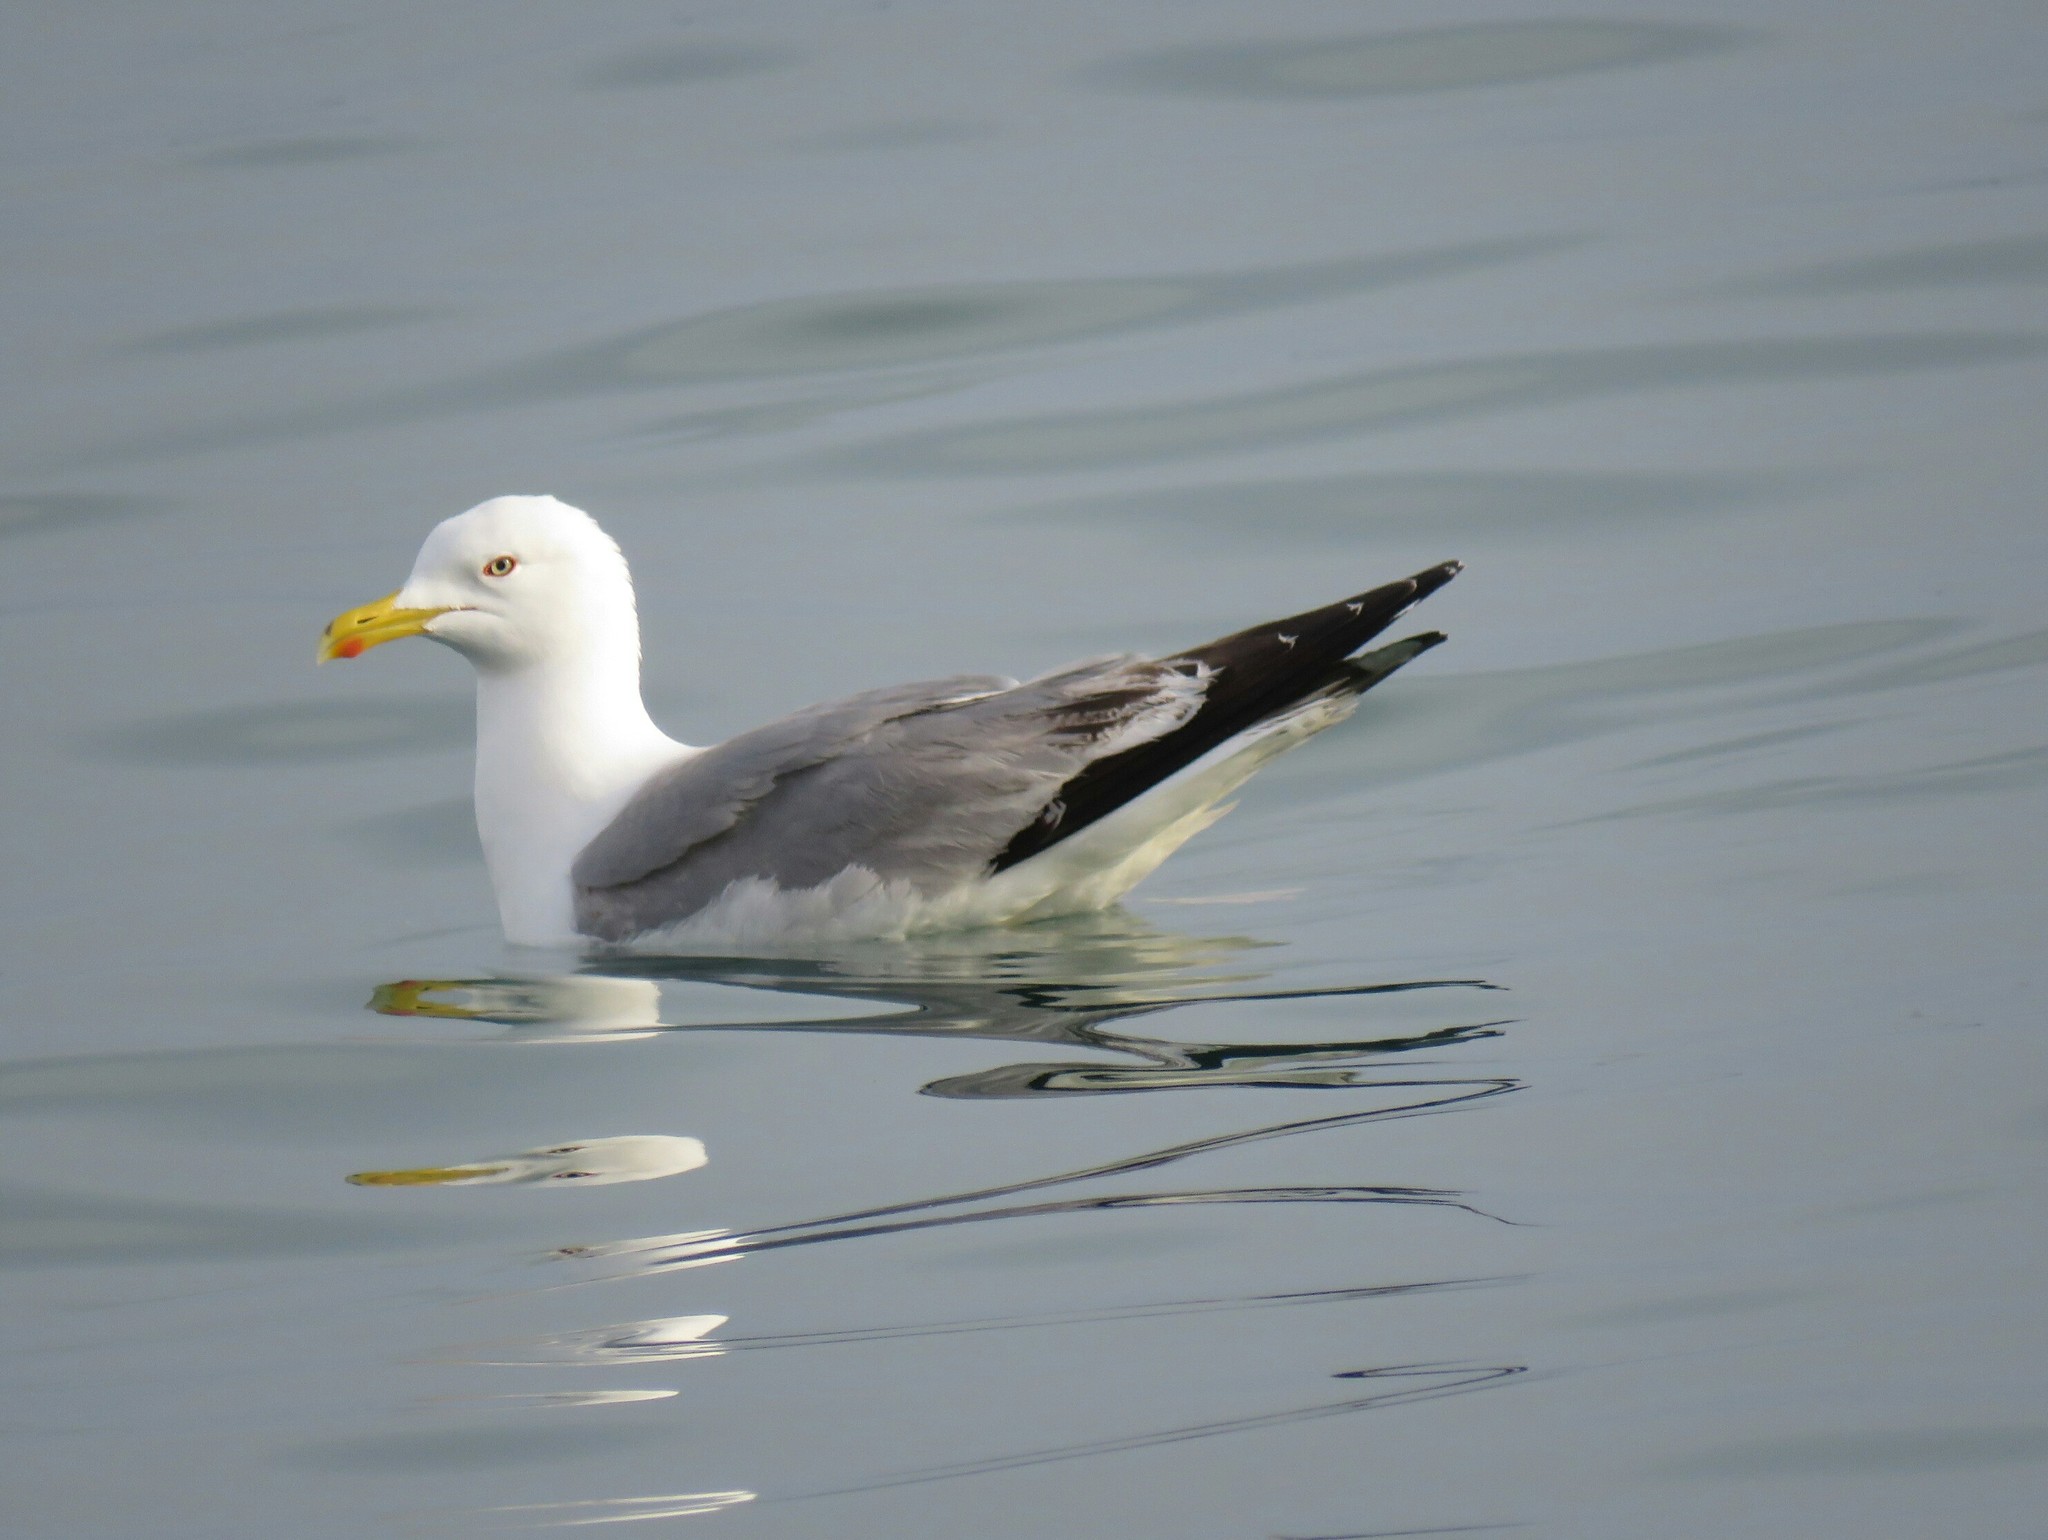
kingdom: Animalia
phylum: Chordata
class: Aves
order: Charadriiformes
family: Laridae
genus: Larus
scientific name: Larus michahellis
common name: Yellow-legged gull
